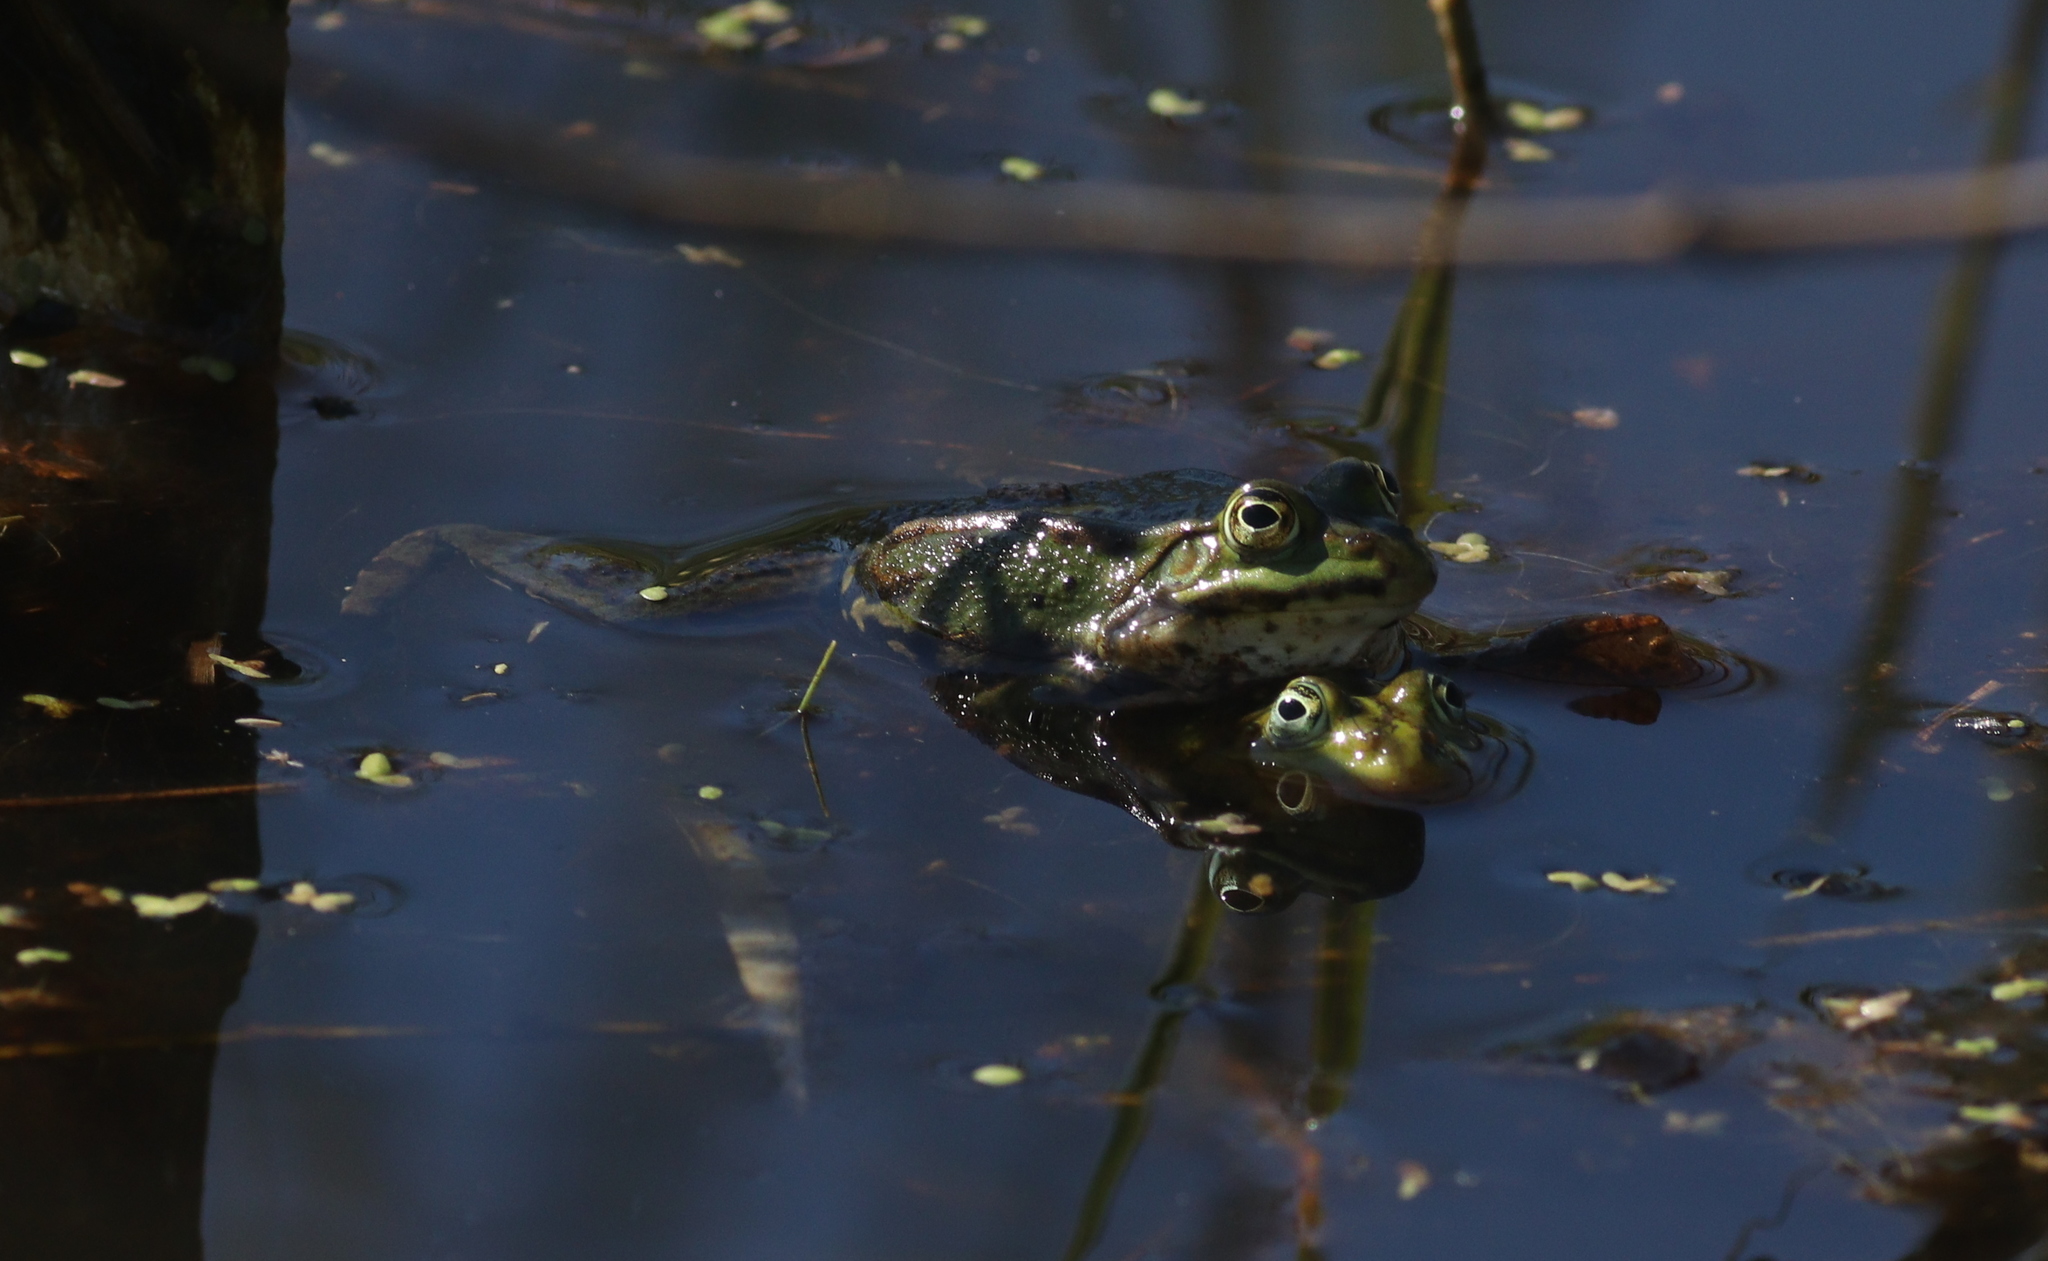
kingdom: Animalia
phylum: Chordata
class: Amphibia
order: Anura
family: Ranidae
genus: Pelophylax
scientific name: Pelophylax
